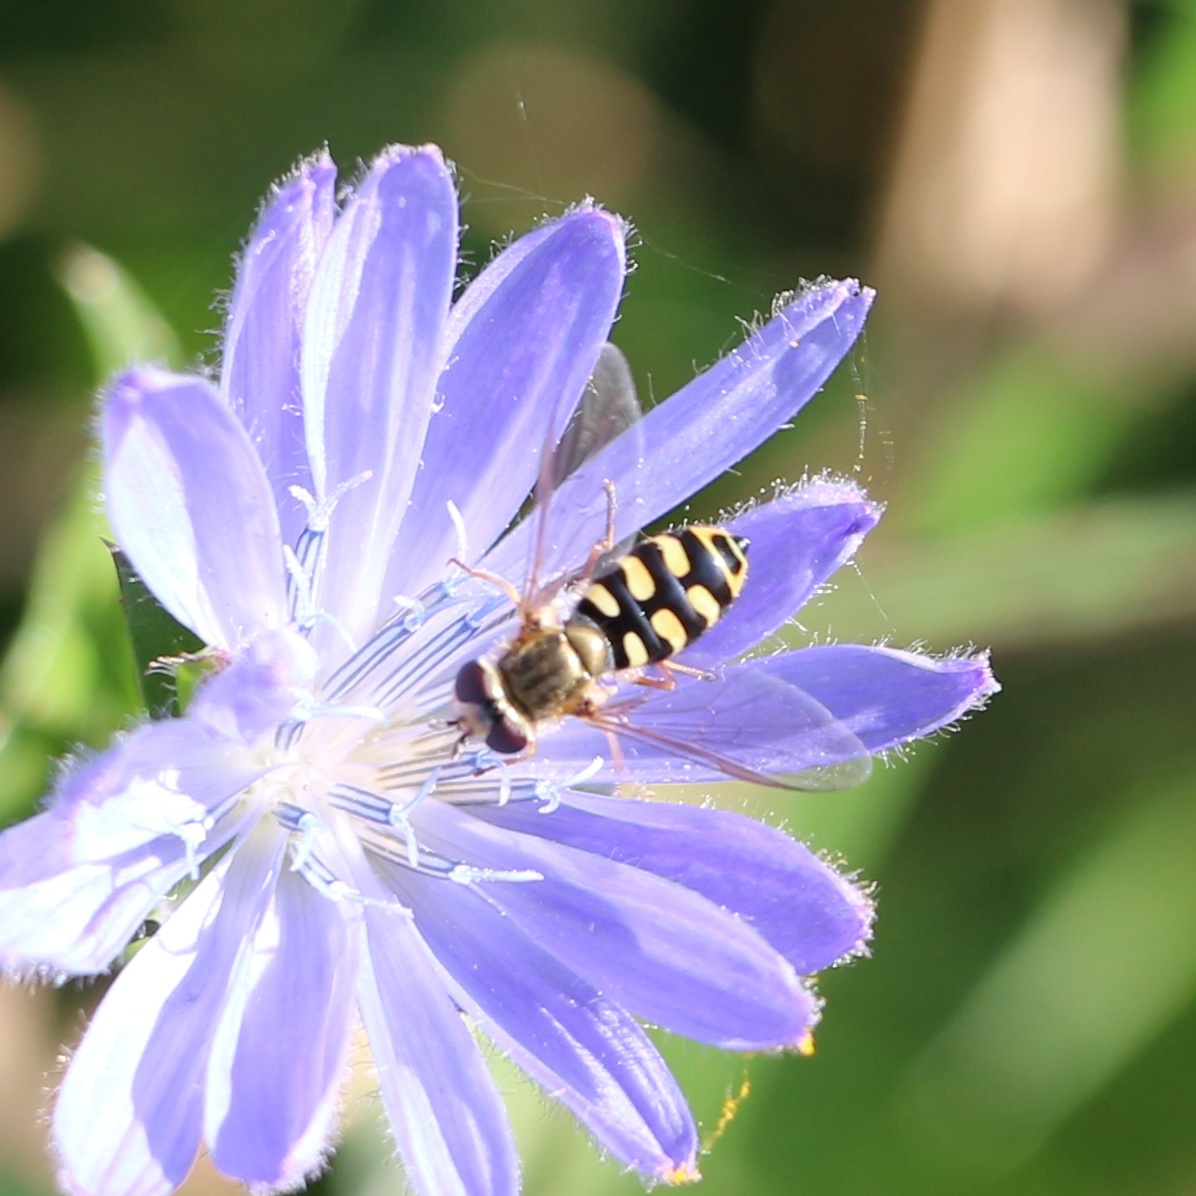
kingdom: Animalia
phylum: Arthropoda
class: Insecta
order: Diptera
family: Syrphidae
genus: Eupeodes
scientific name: Eupeodes corollae
